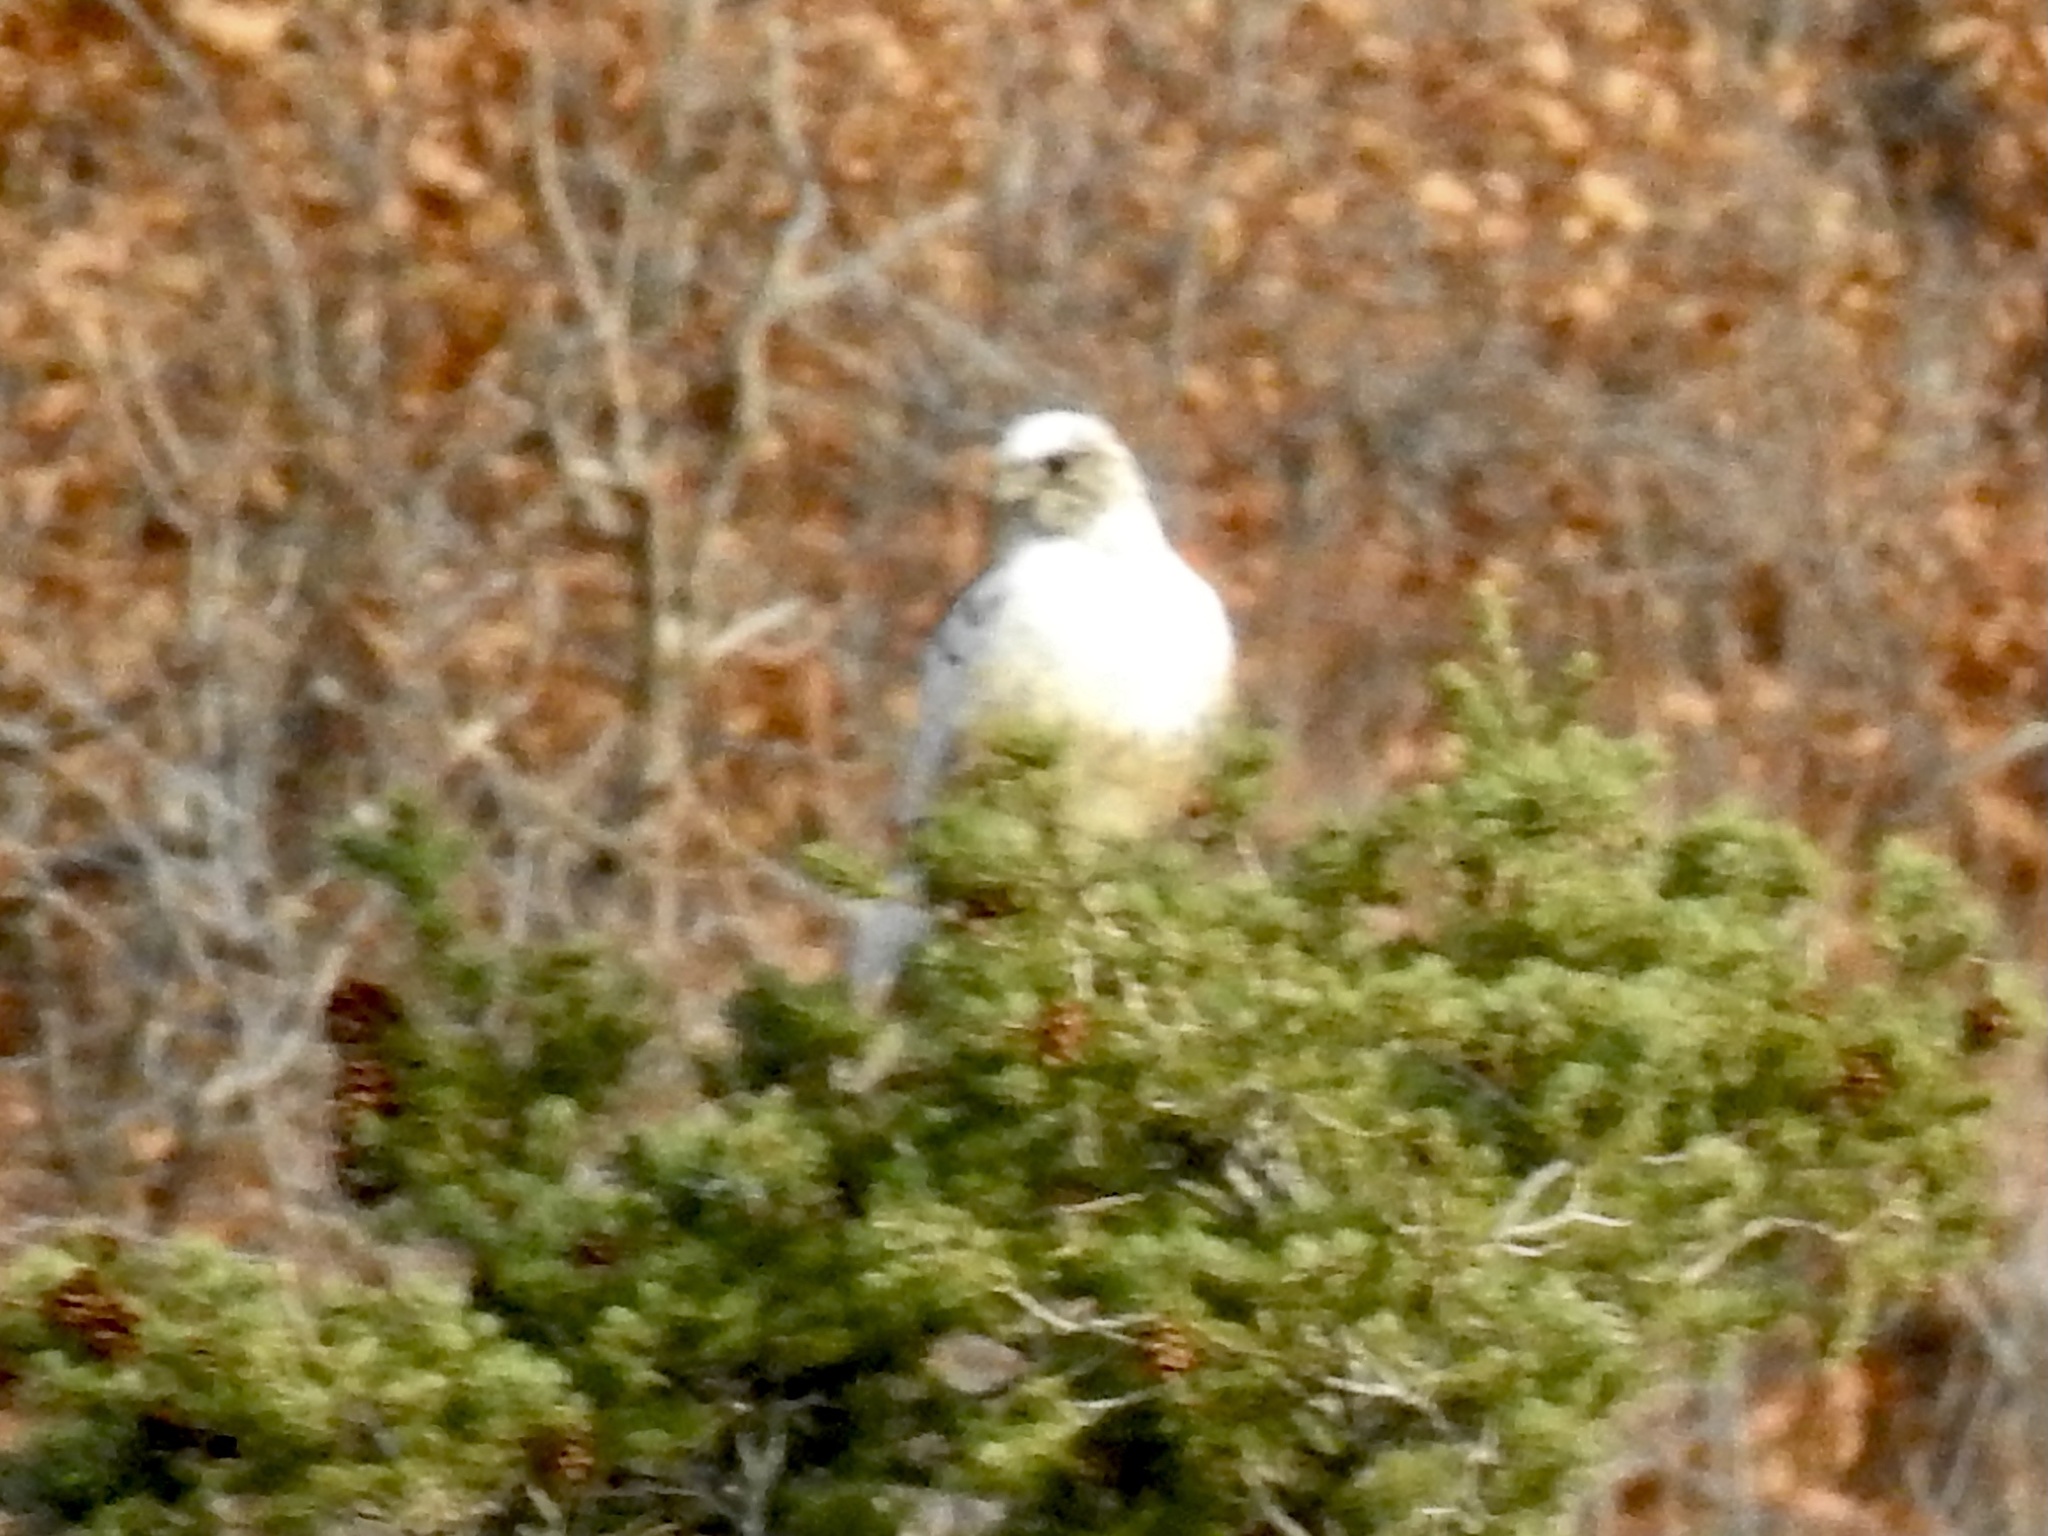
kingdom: Animalia
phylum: Chordata
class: Aves
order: Accipitriformes
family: Accipitridae
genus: Buteo
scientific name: Buteo jamaicensis
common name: Red-tailed hawk
